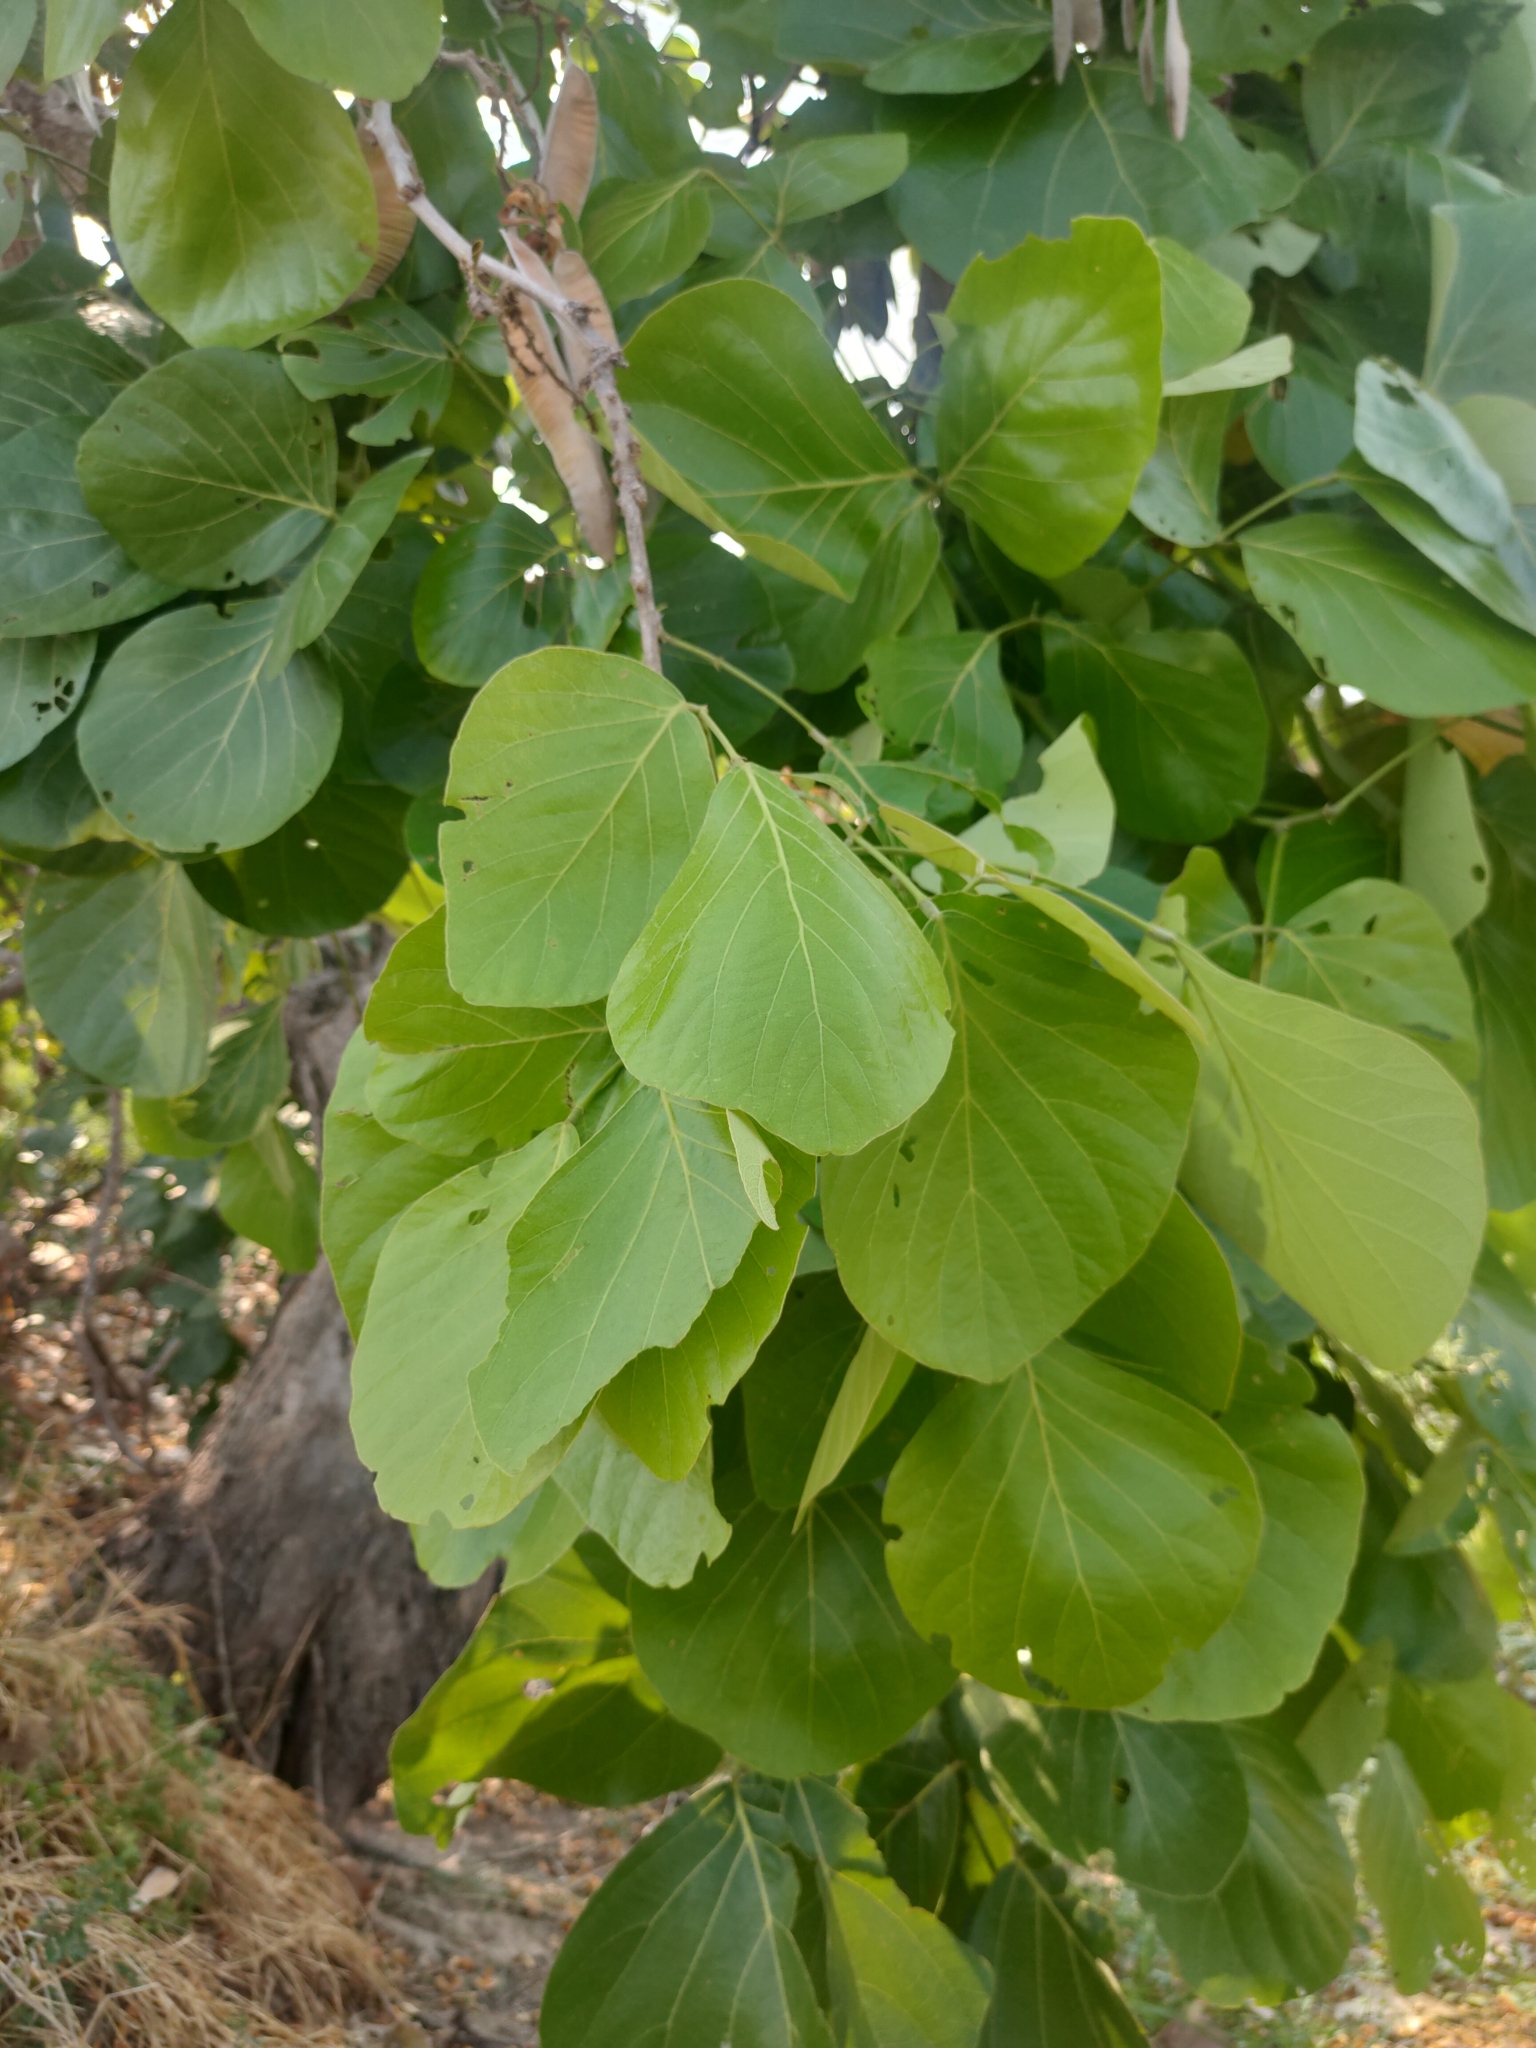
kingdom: Plantae
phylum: Tracheophyta
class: Magnoliopsida
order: Fabales
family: Fabaceae
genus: Butea
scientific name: Butea monosperma
